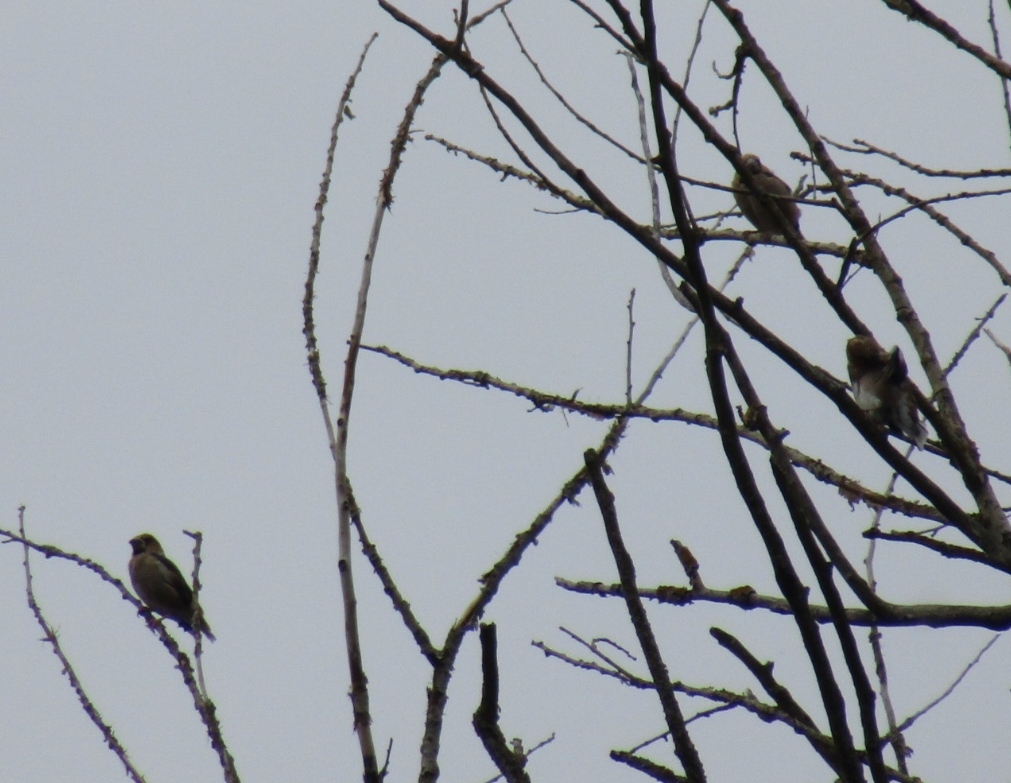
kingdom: Animalia
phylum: Chordata
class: Aves
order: Passeriformes
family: Fringillidae
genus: Coccothraustes
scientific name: Coccothraustes coccothraustes
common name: Hawfinch
